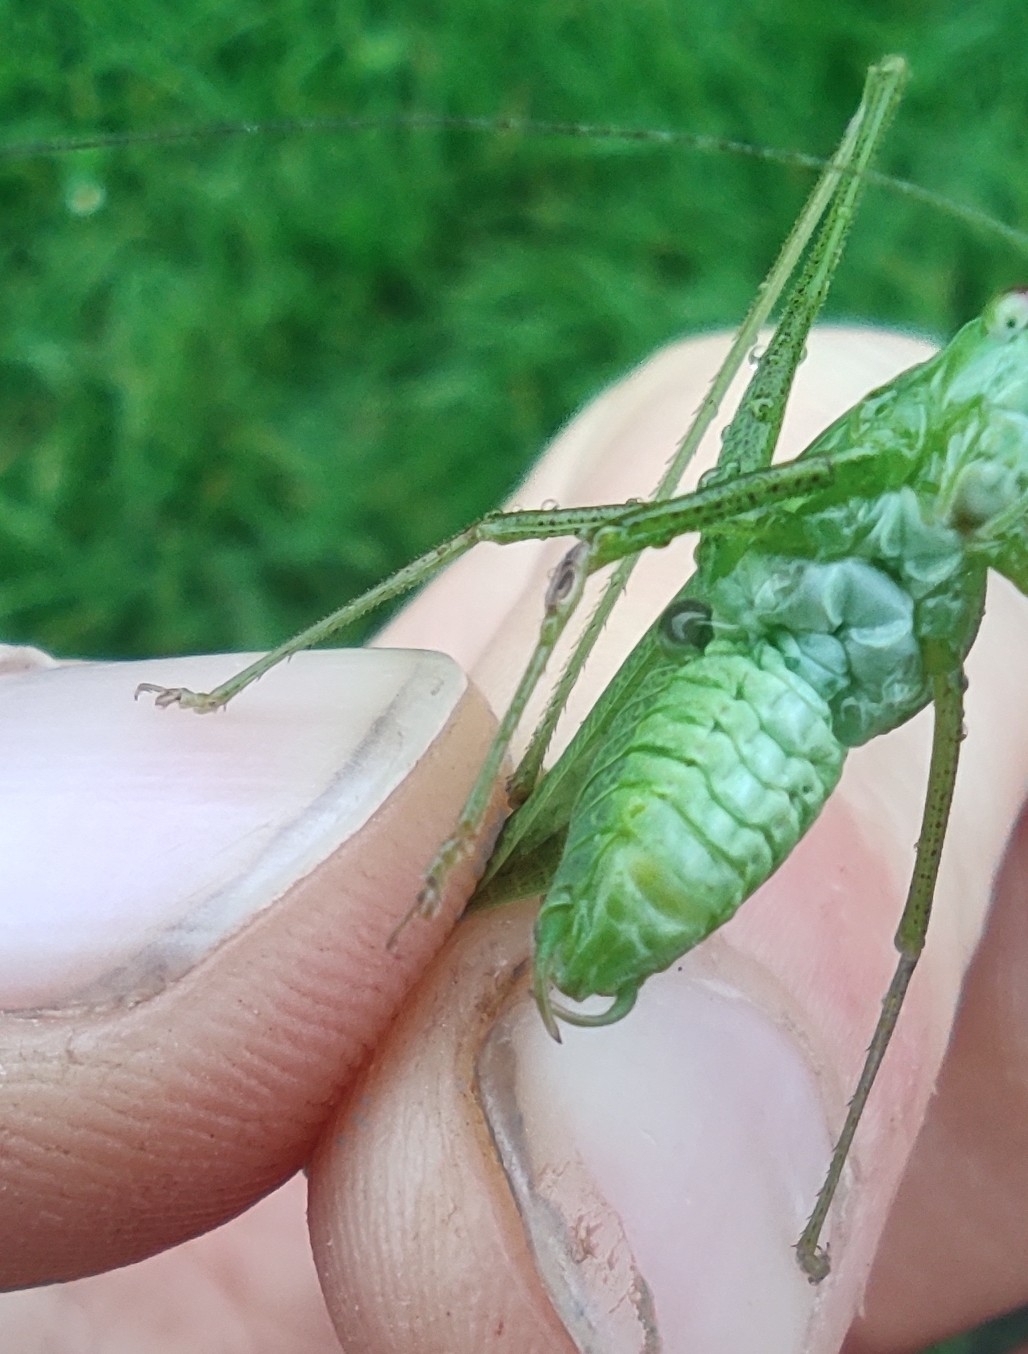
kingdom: Animalia
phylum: Arthropoda
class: Insecta
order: Orthoptera
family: Tettigoniidae
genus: Phaneroptera
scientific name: Phaneroptera nana
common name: Southern sickle bush-cricket
